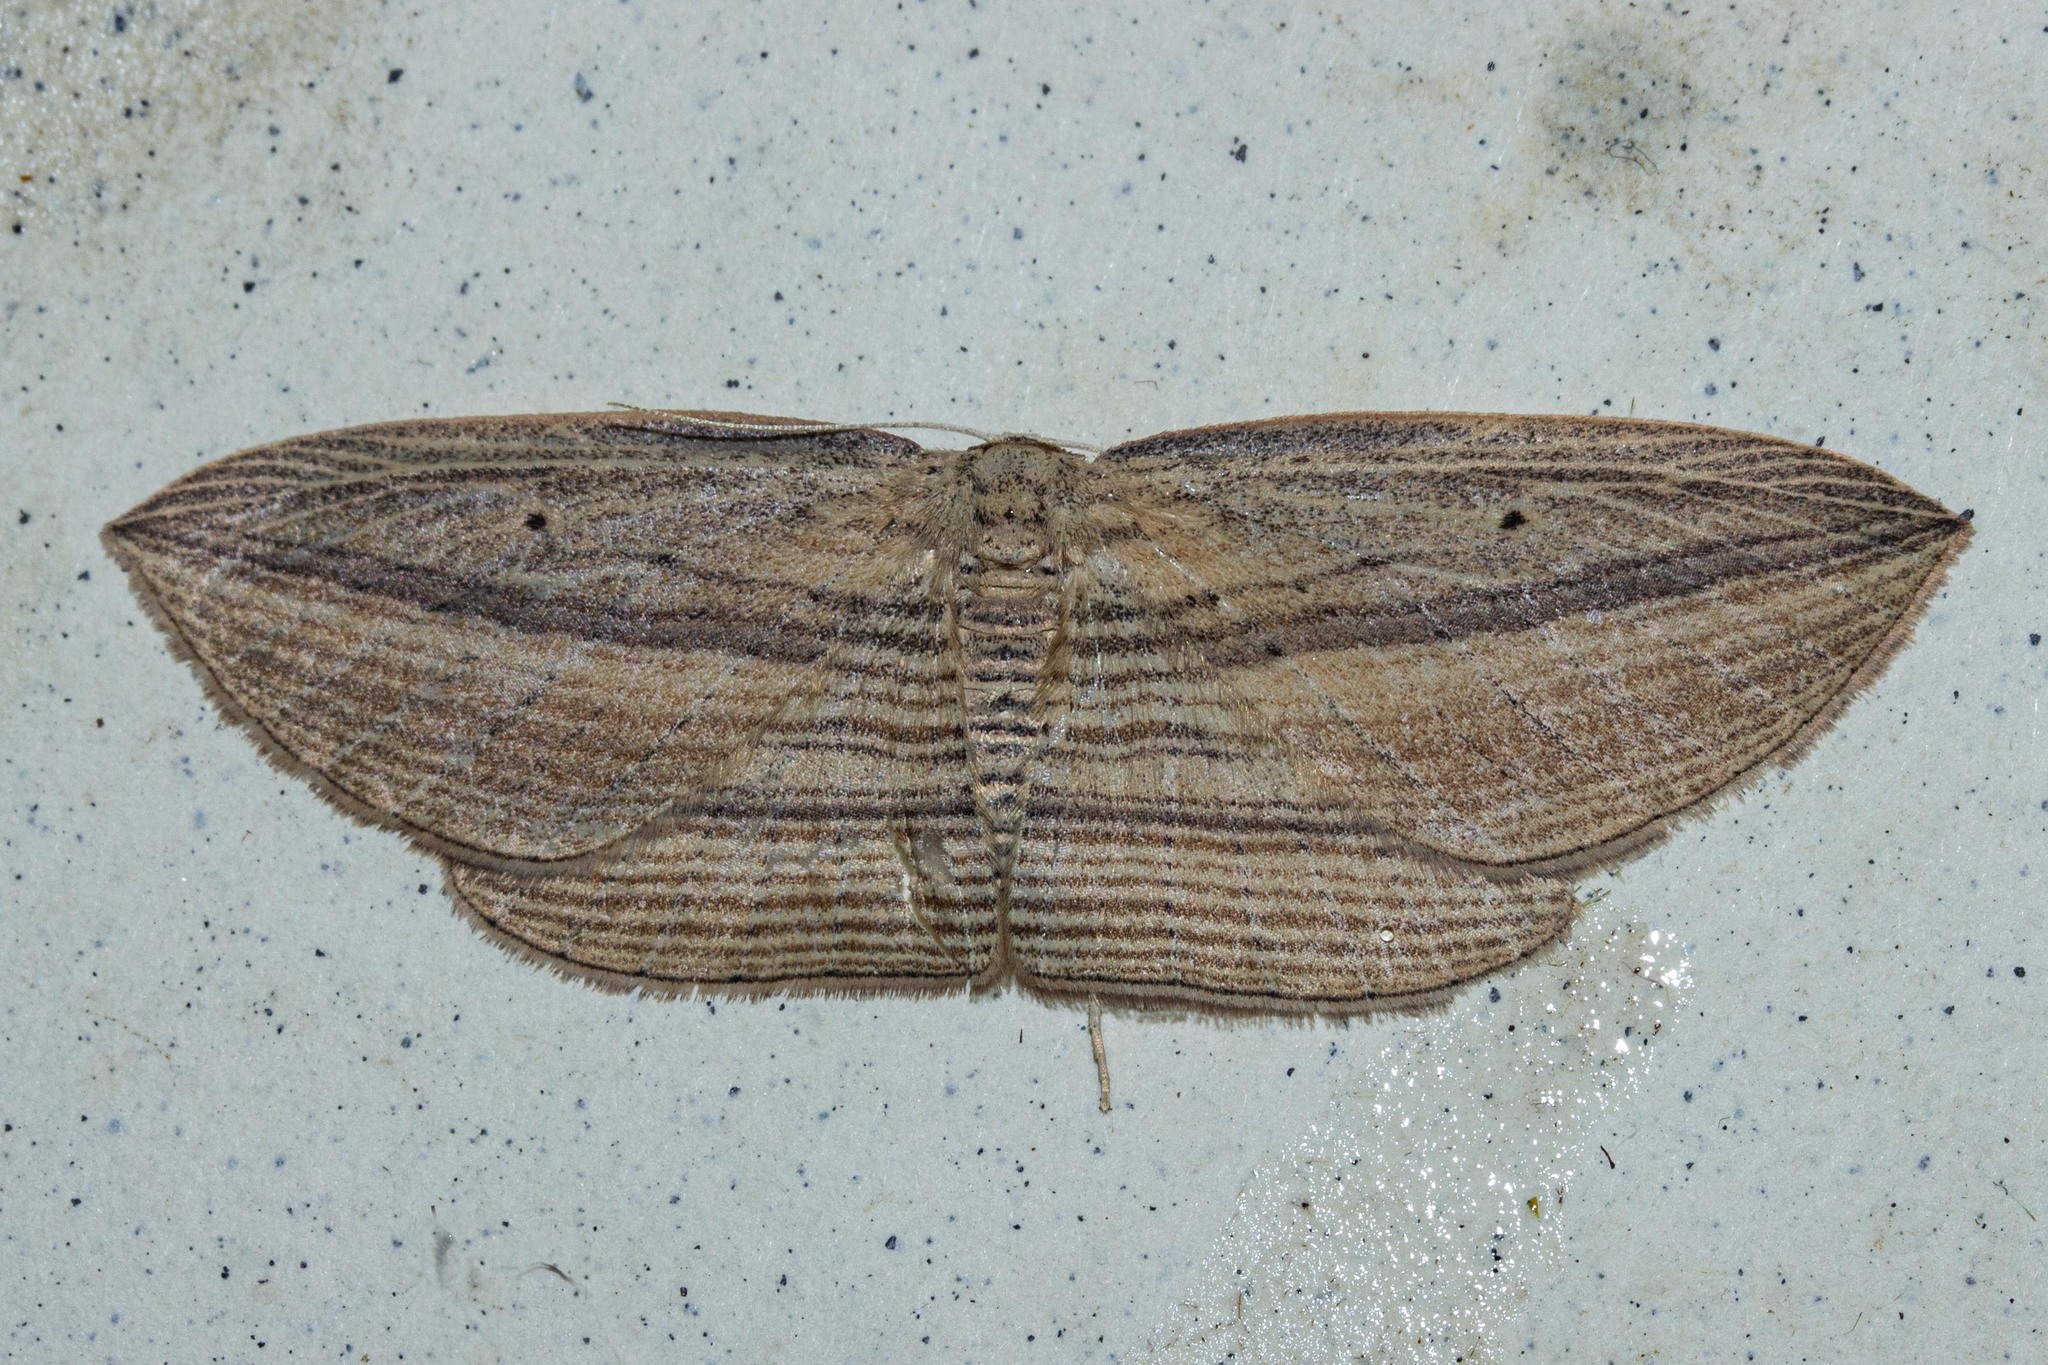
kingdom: Animalia
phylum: Arthropoda
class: Insecta
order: Lepidoptera
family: Geometridae
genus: Epiphryne
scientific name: Epiphryne verriculata
